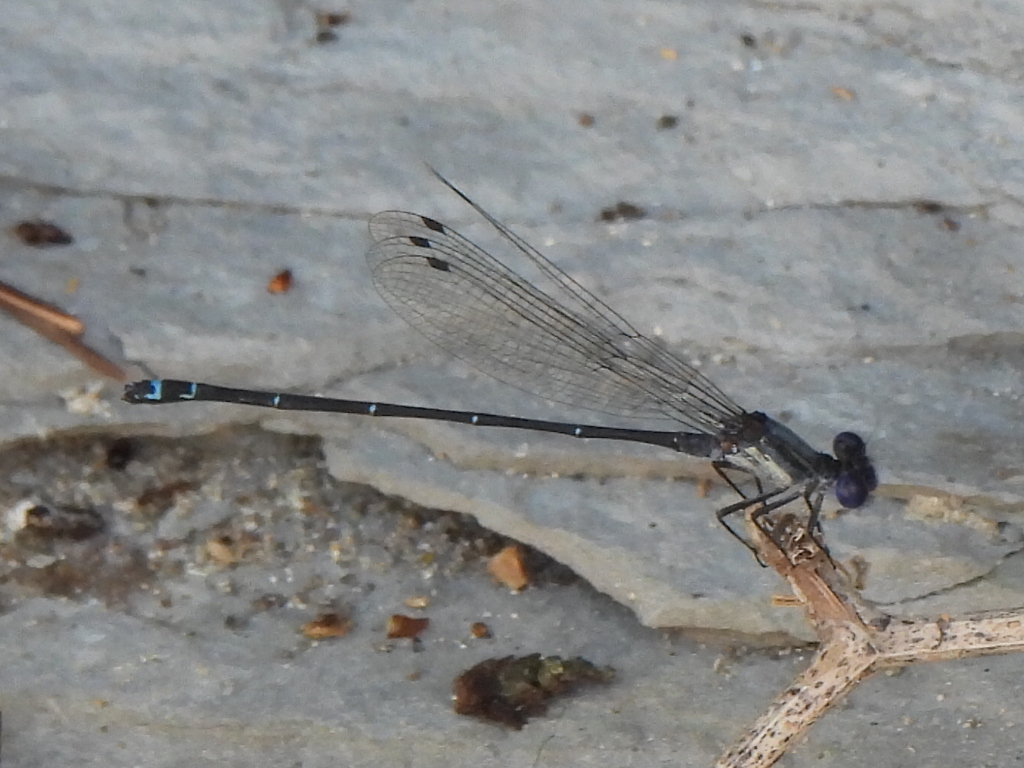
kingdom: Animalia
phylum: Arthropoda
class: Insecta
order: Odonata
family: Coenagrionidae
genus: Argia
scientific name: Argia translata
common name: Dusky dancer
